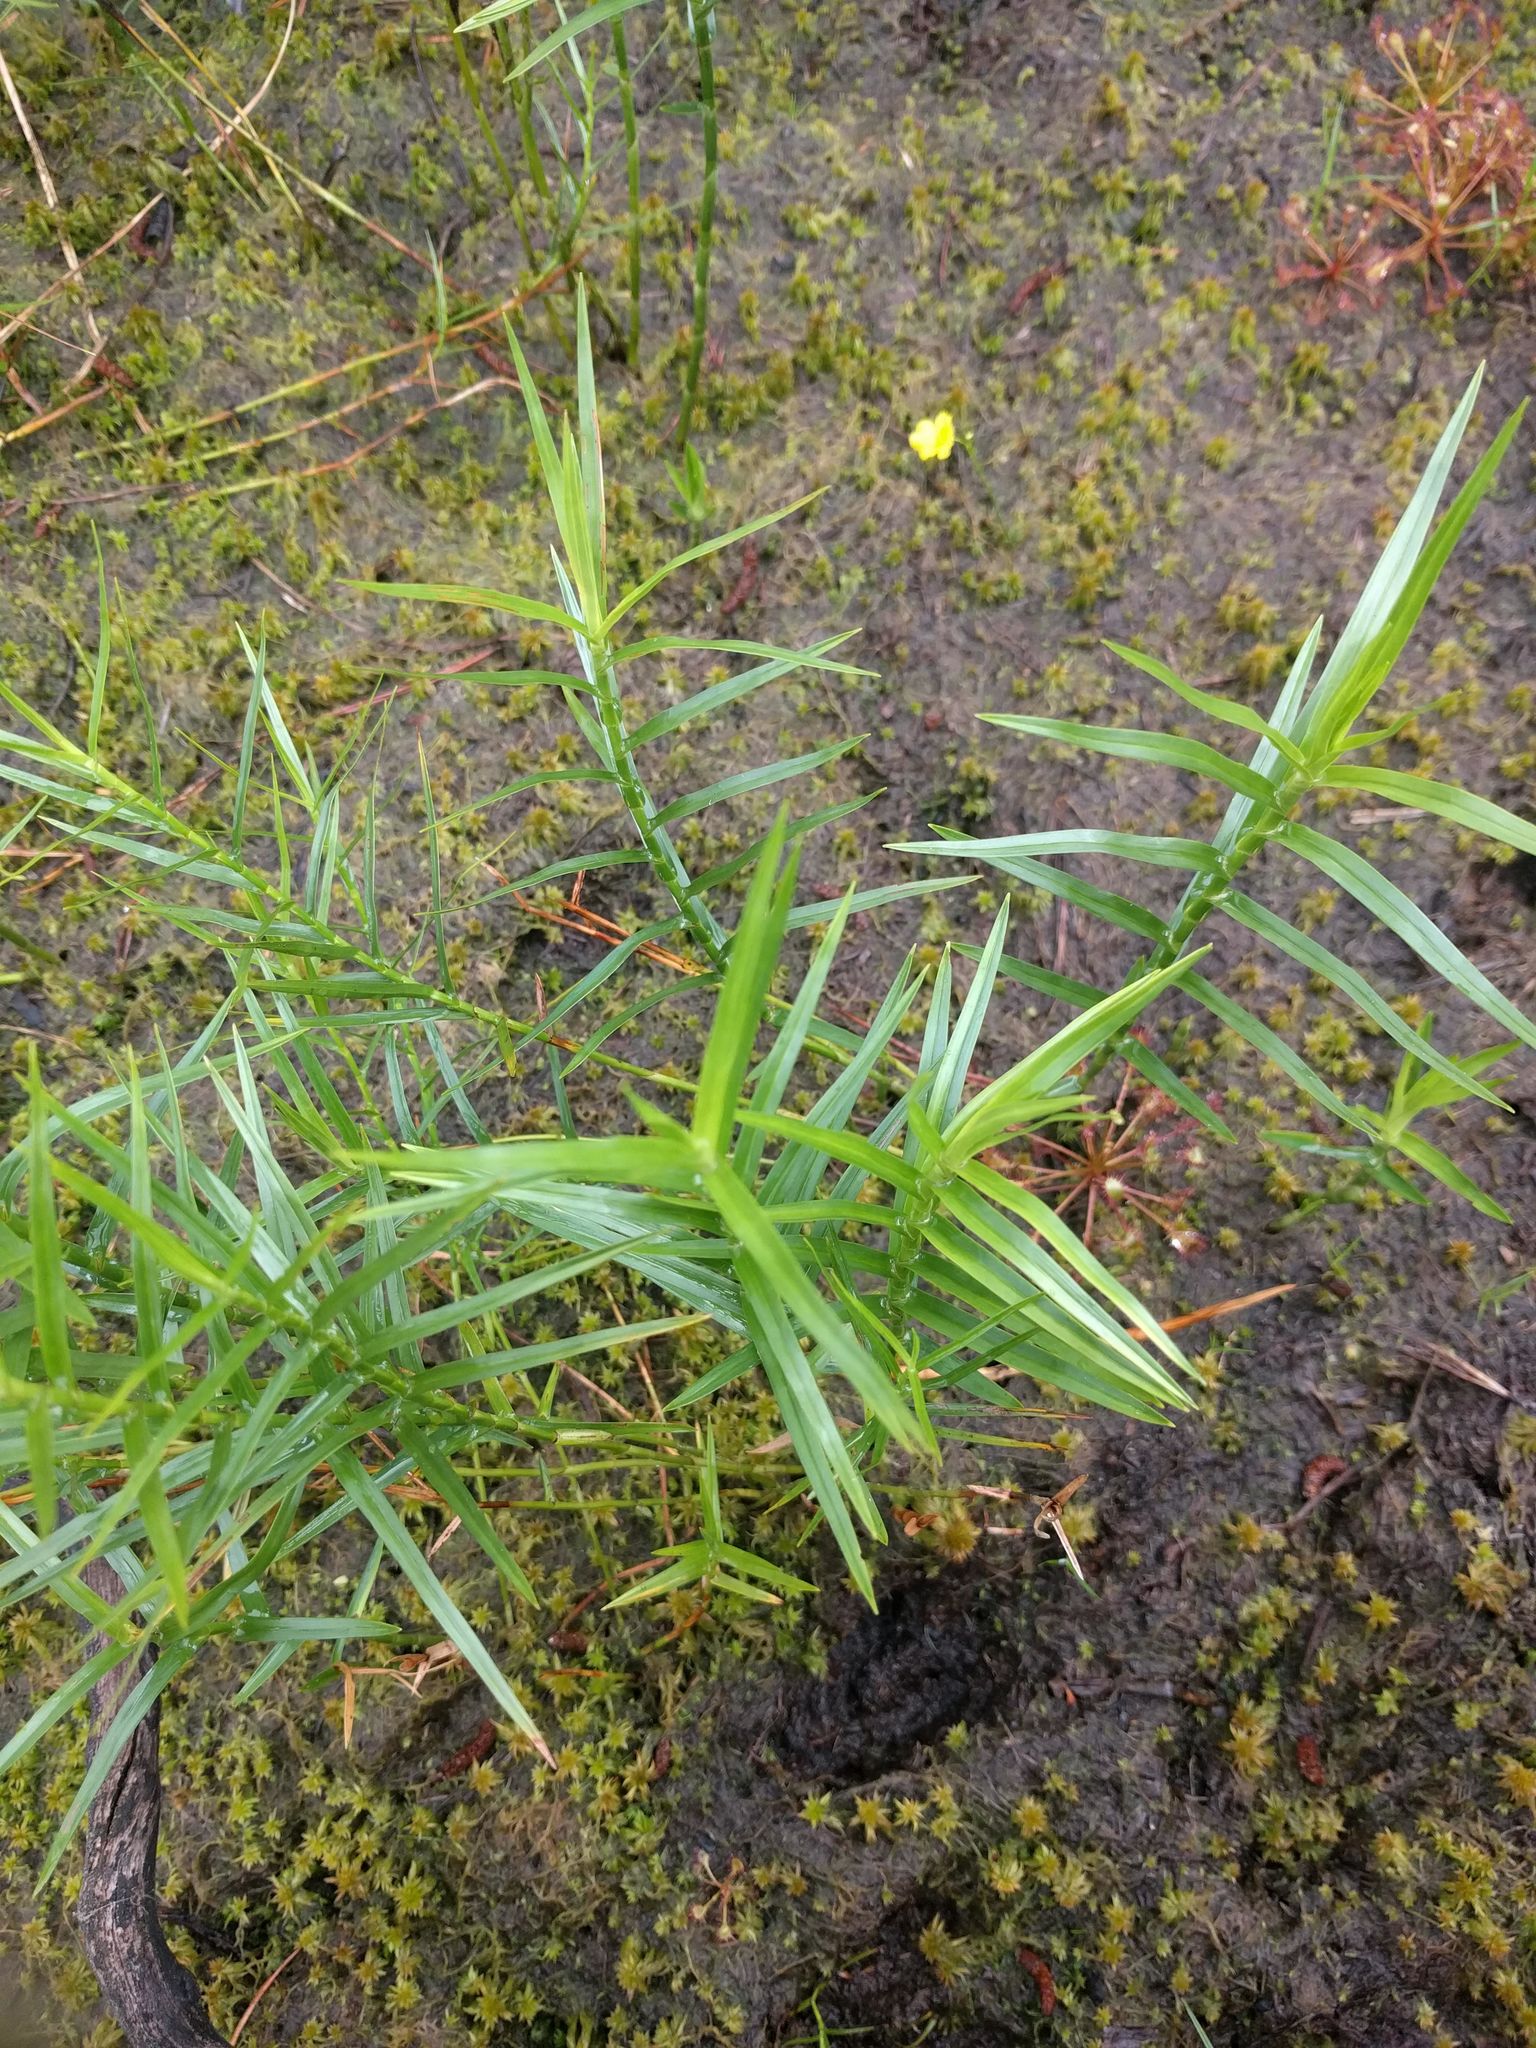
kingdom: Plantae
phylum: Tracheophyta
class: Liliopsida
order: Poales
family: Cyperaceae
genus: Dulichium
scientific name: Dulichium arundinaceum
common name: Three-way sedge
